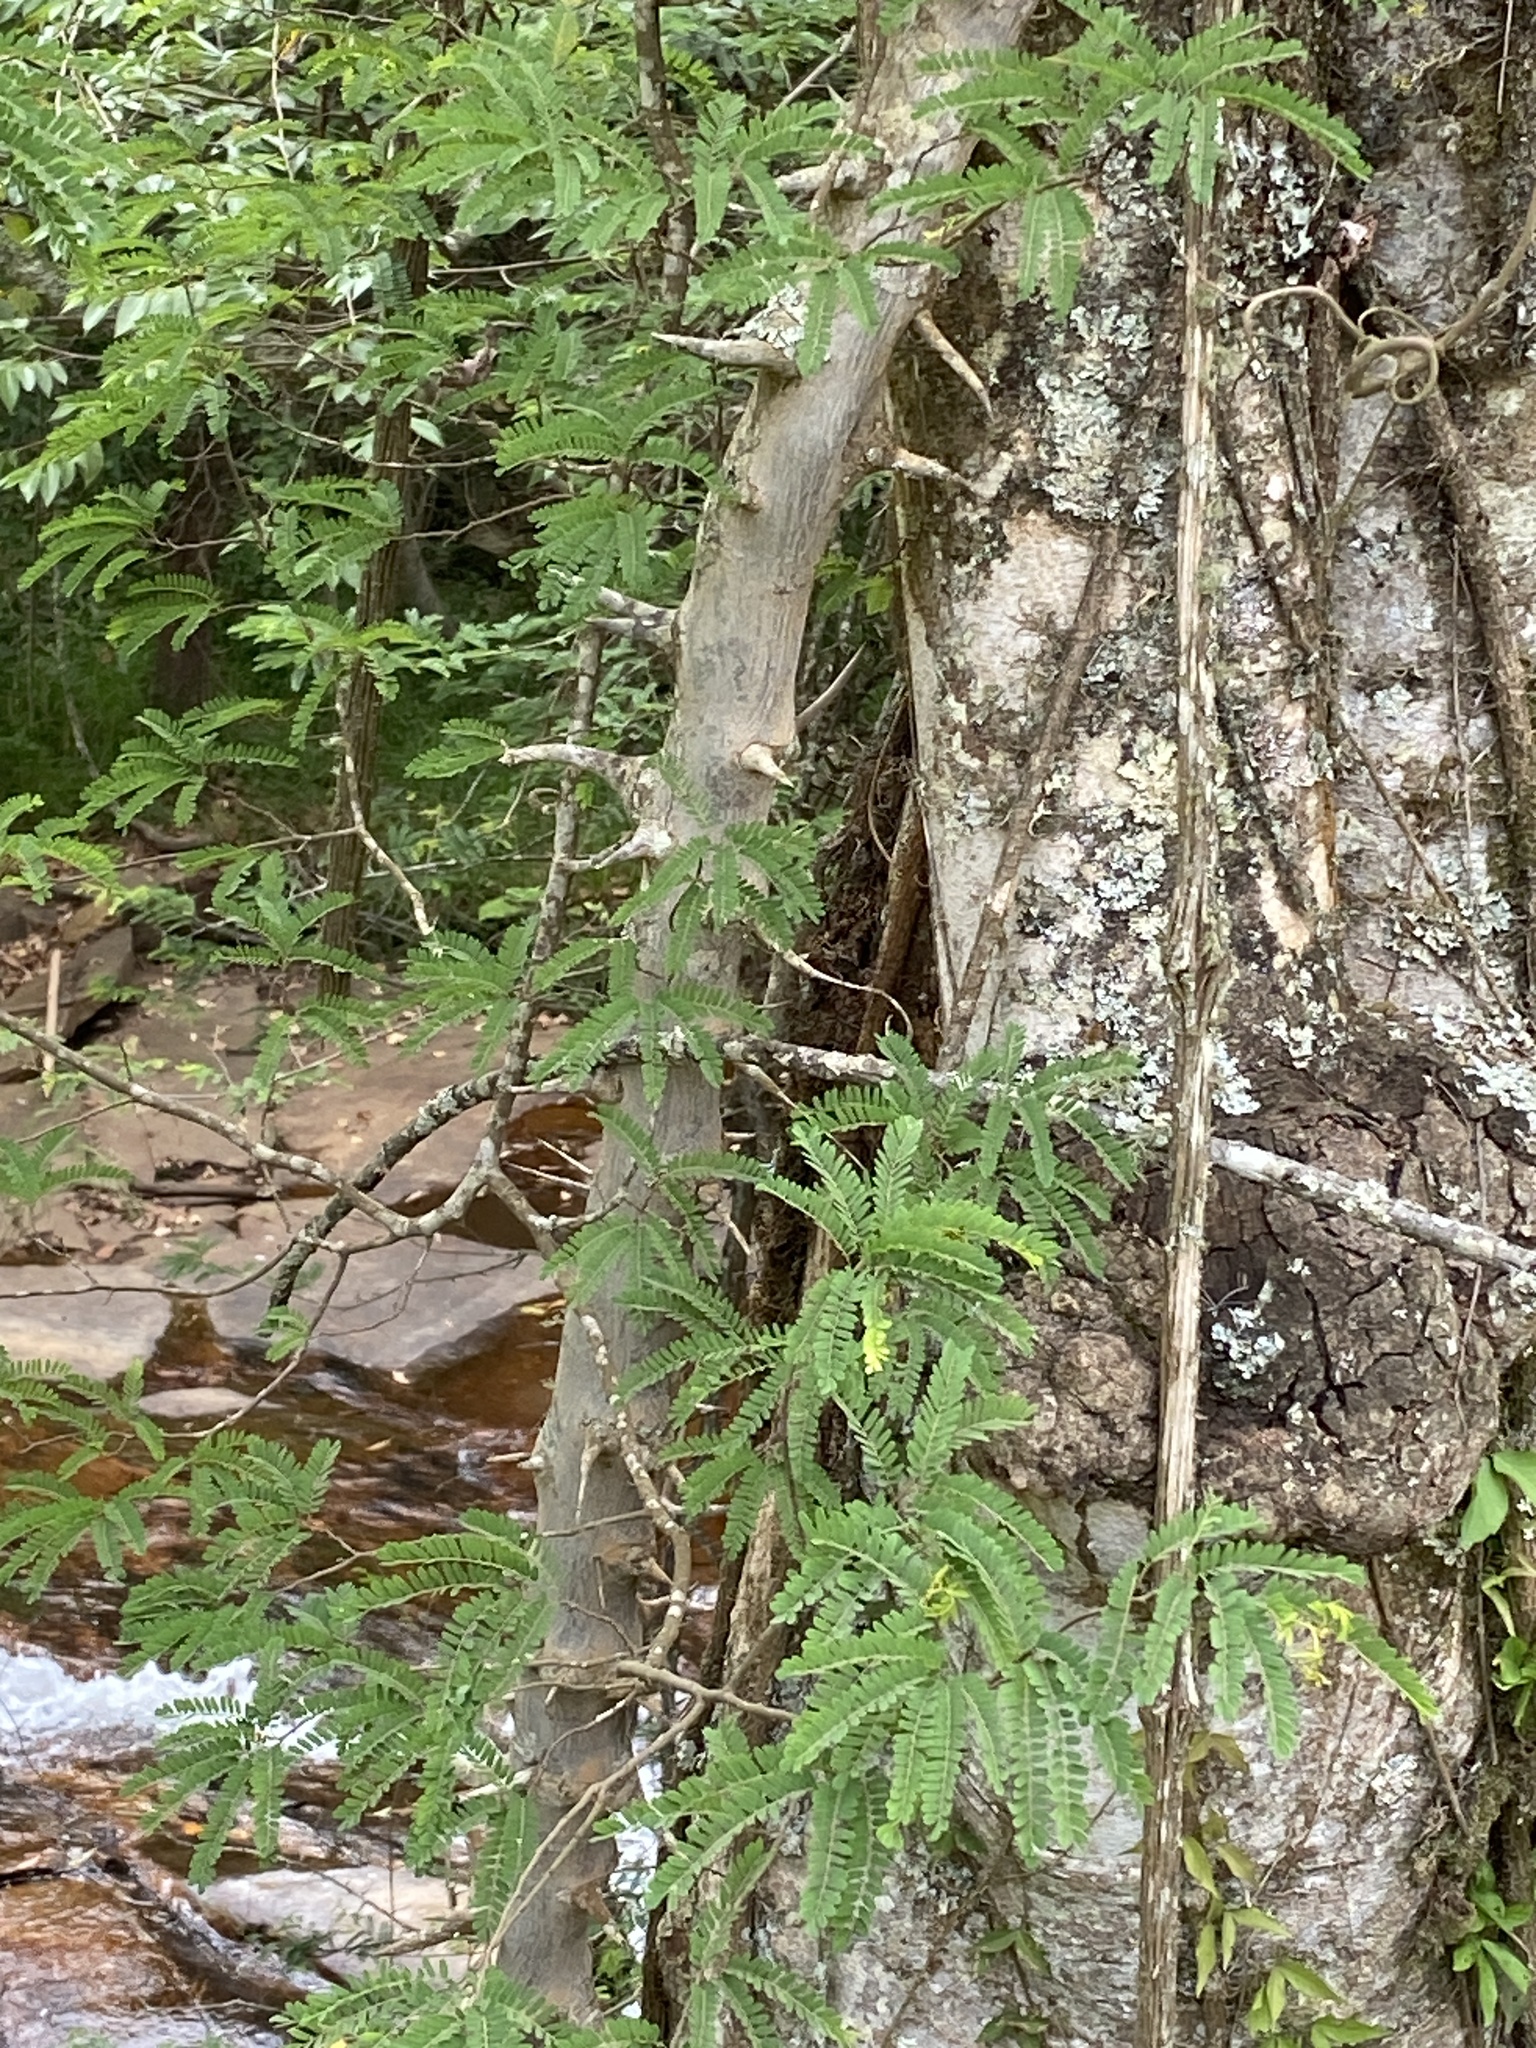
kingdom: Plantae
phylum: Tracheophyta
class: Magnoliopsida
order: Fabales
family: Fabaceae
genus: Dalbergia
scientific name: Dalbergia armata
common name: Hluhluwe climber
